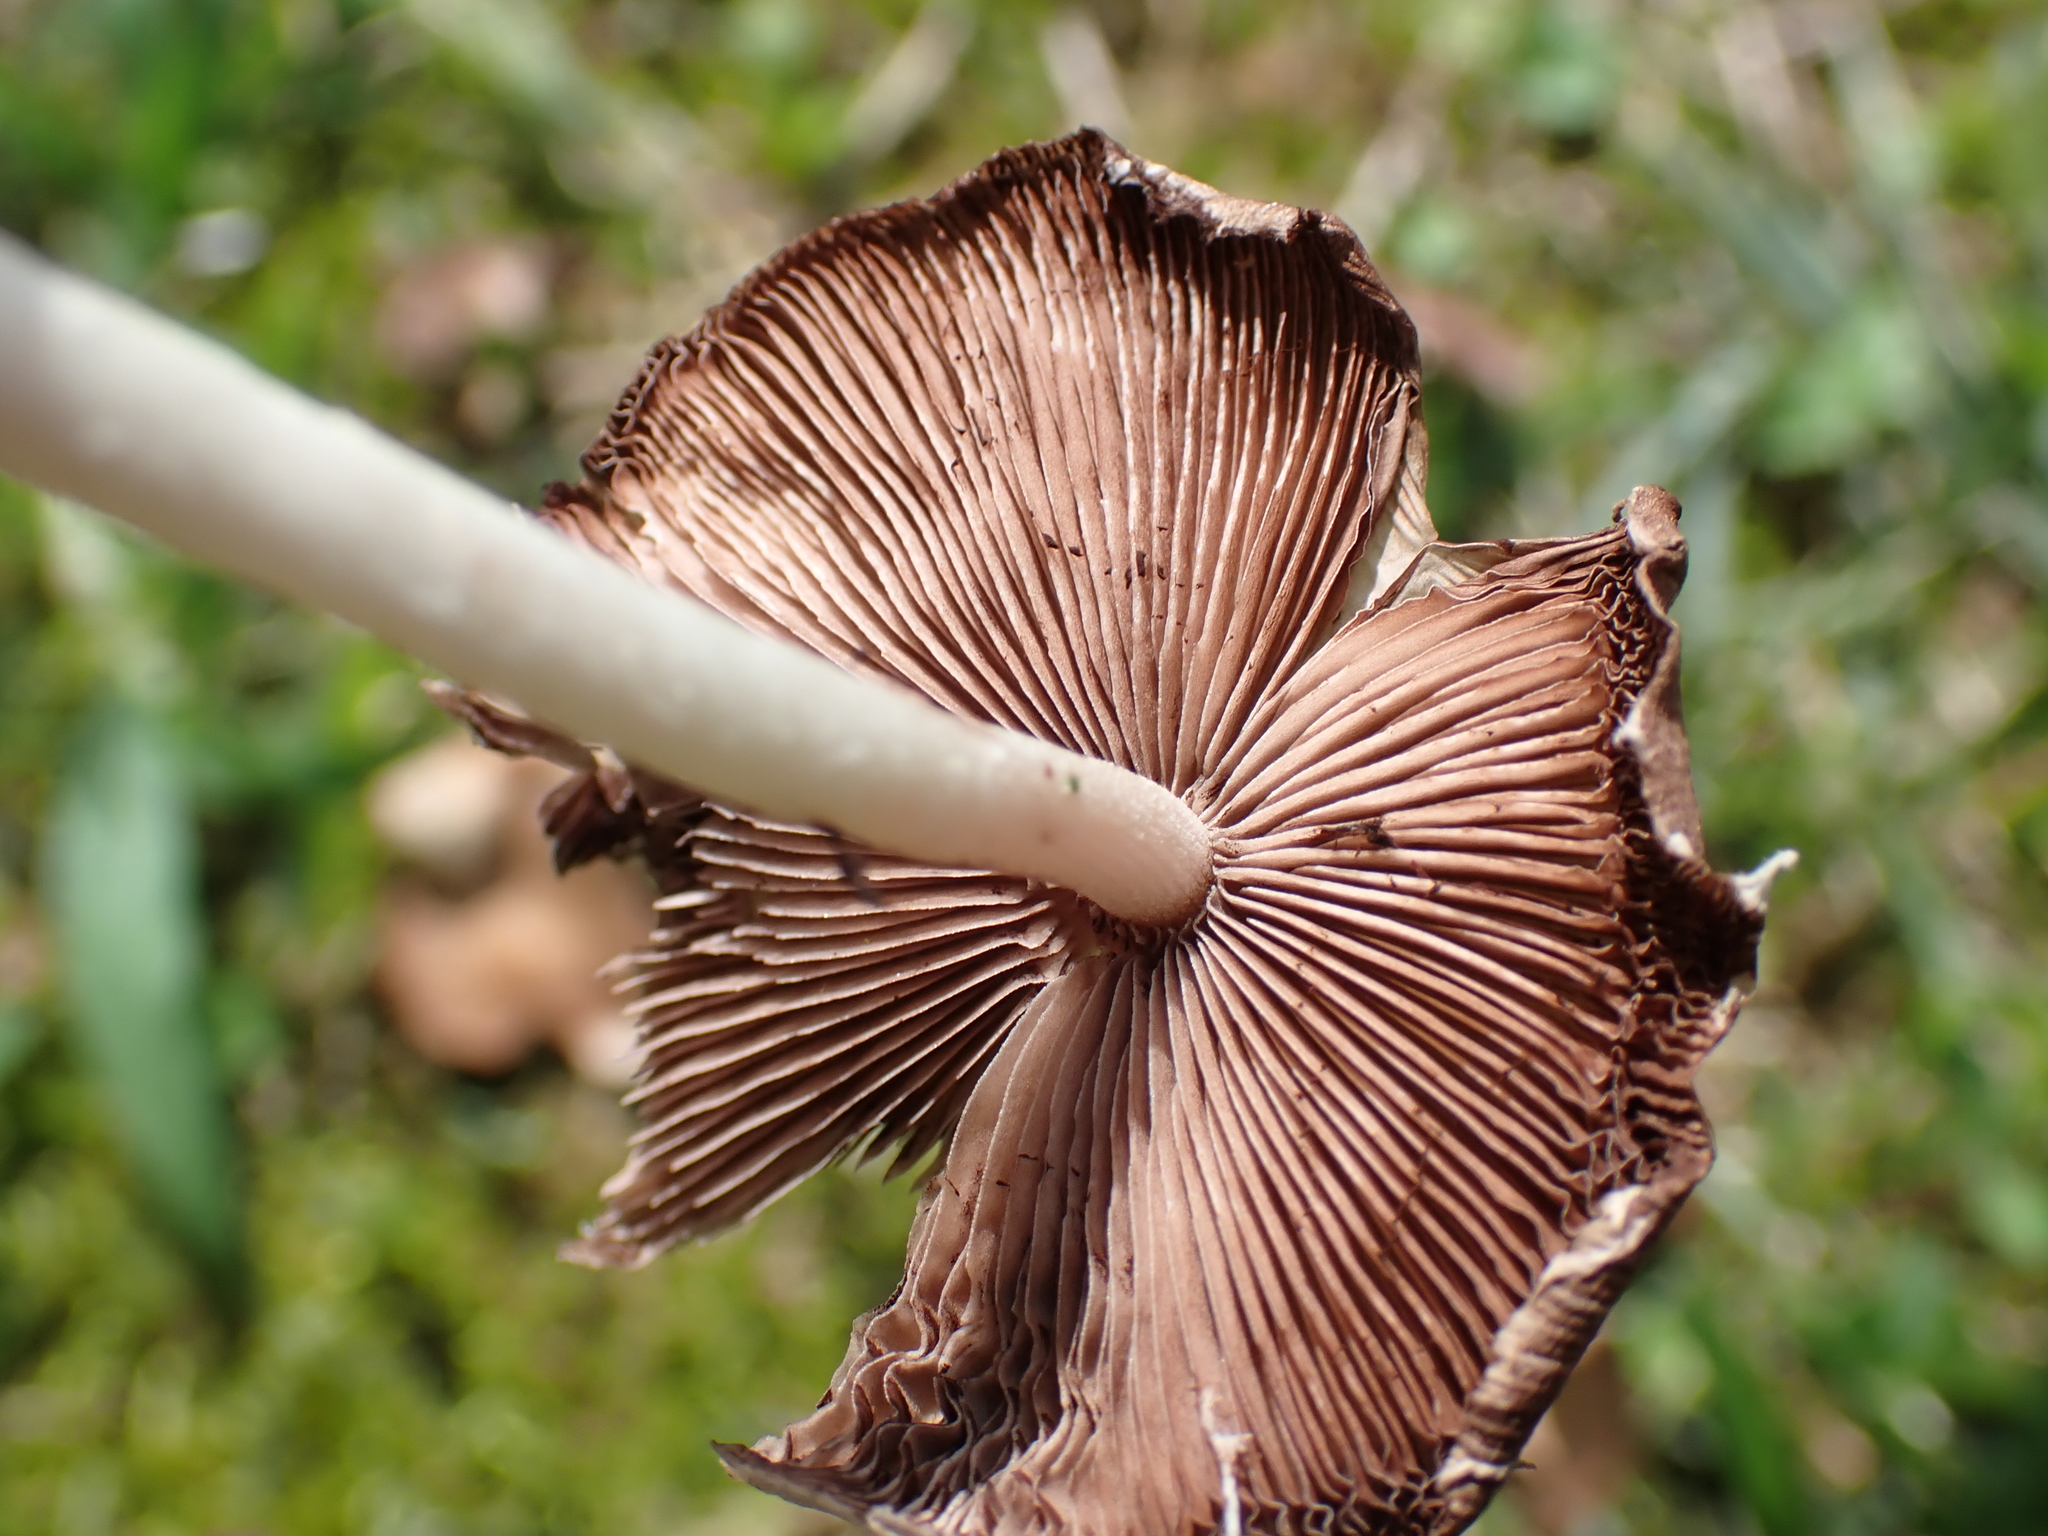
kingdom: Fungi
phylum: Basidiomycota
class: Agaricomycetes
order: Agaricales
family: Psathyrellaceae
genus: Candolleomyces
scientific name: Candolleomyces candolleanus
